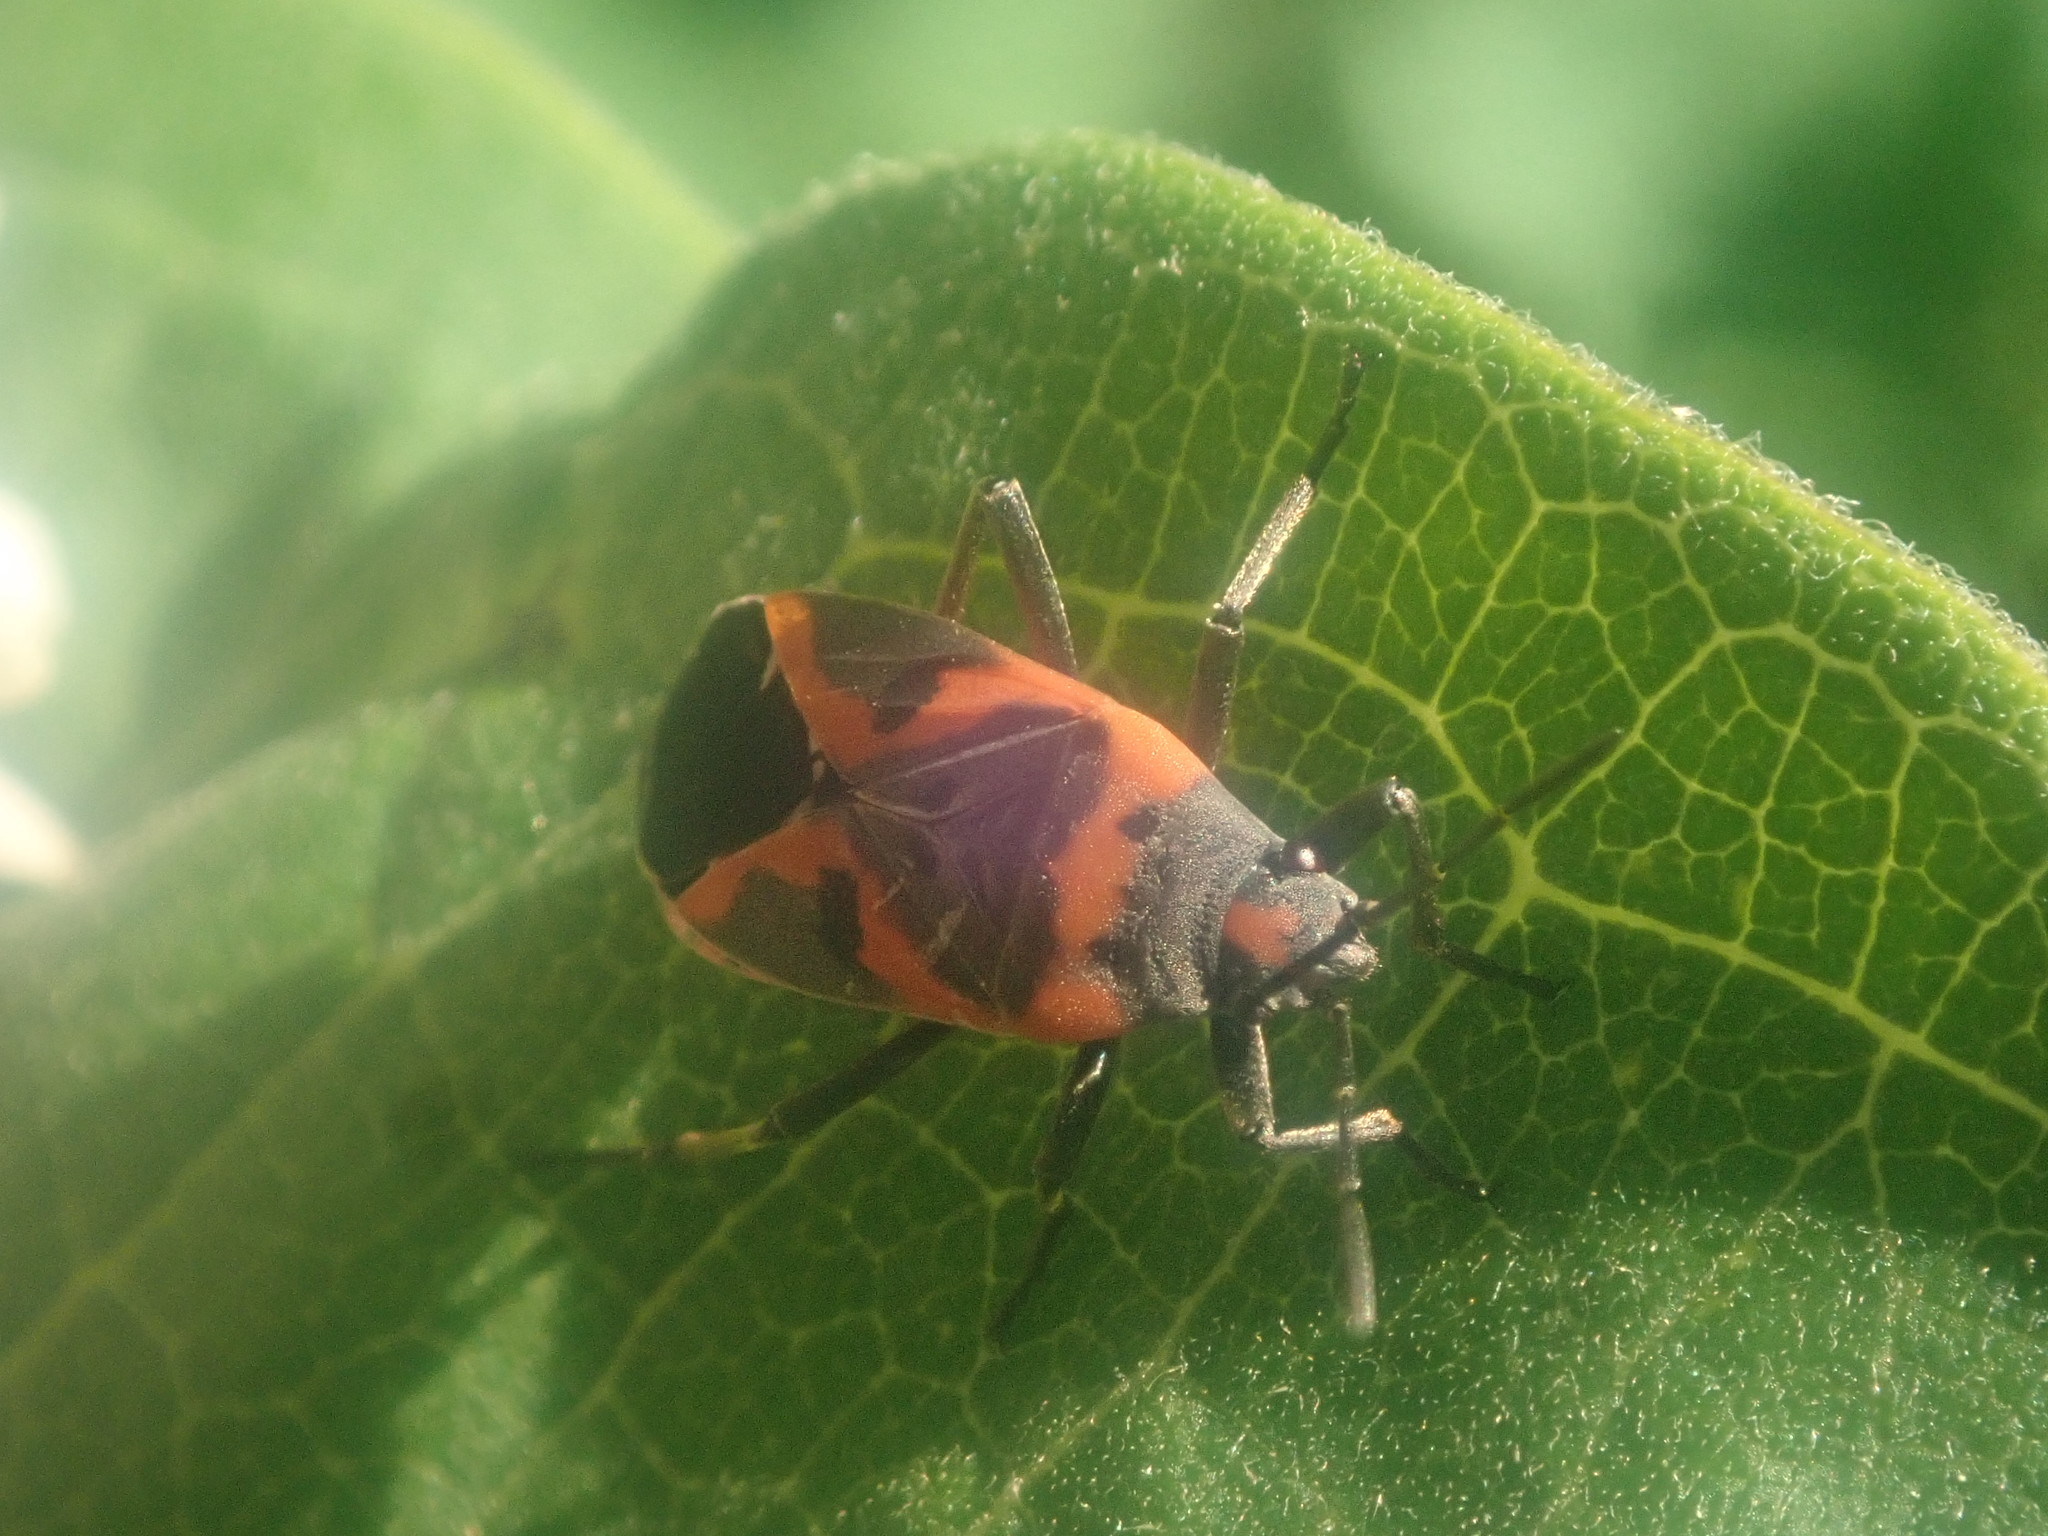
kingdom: Animalia
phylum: Arthropoda
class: Insecta
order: Hemiptera
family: Lygaeidae
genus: Lygaeus
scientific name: Lygaeus kalmii
